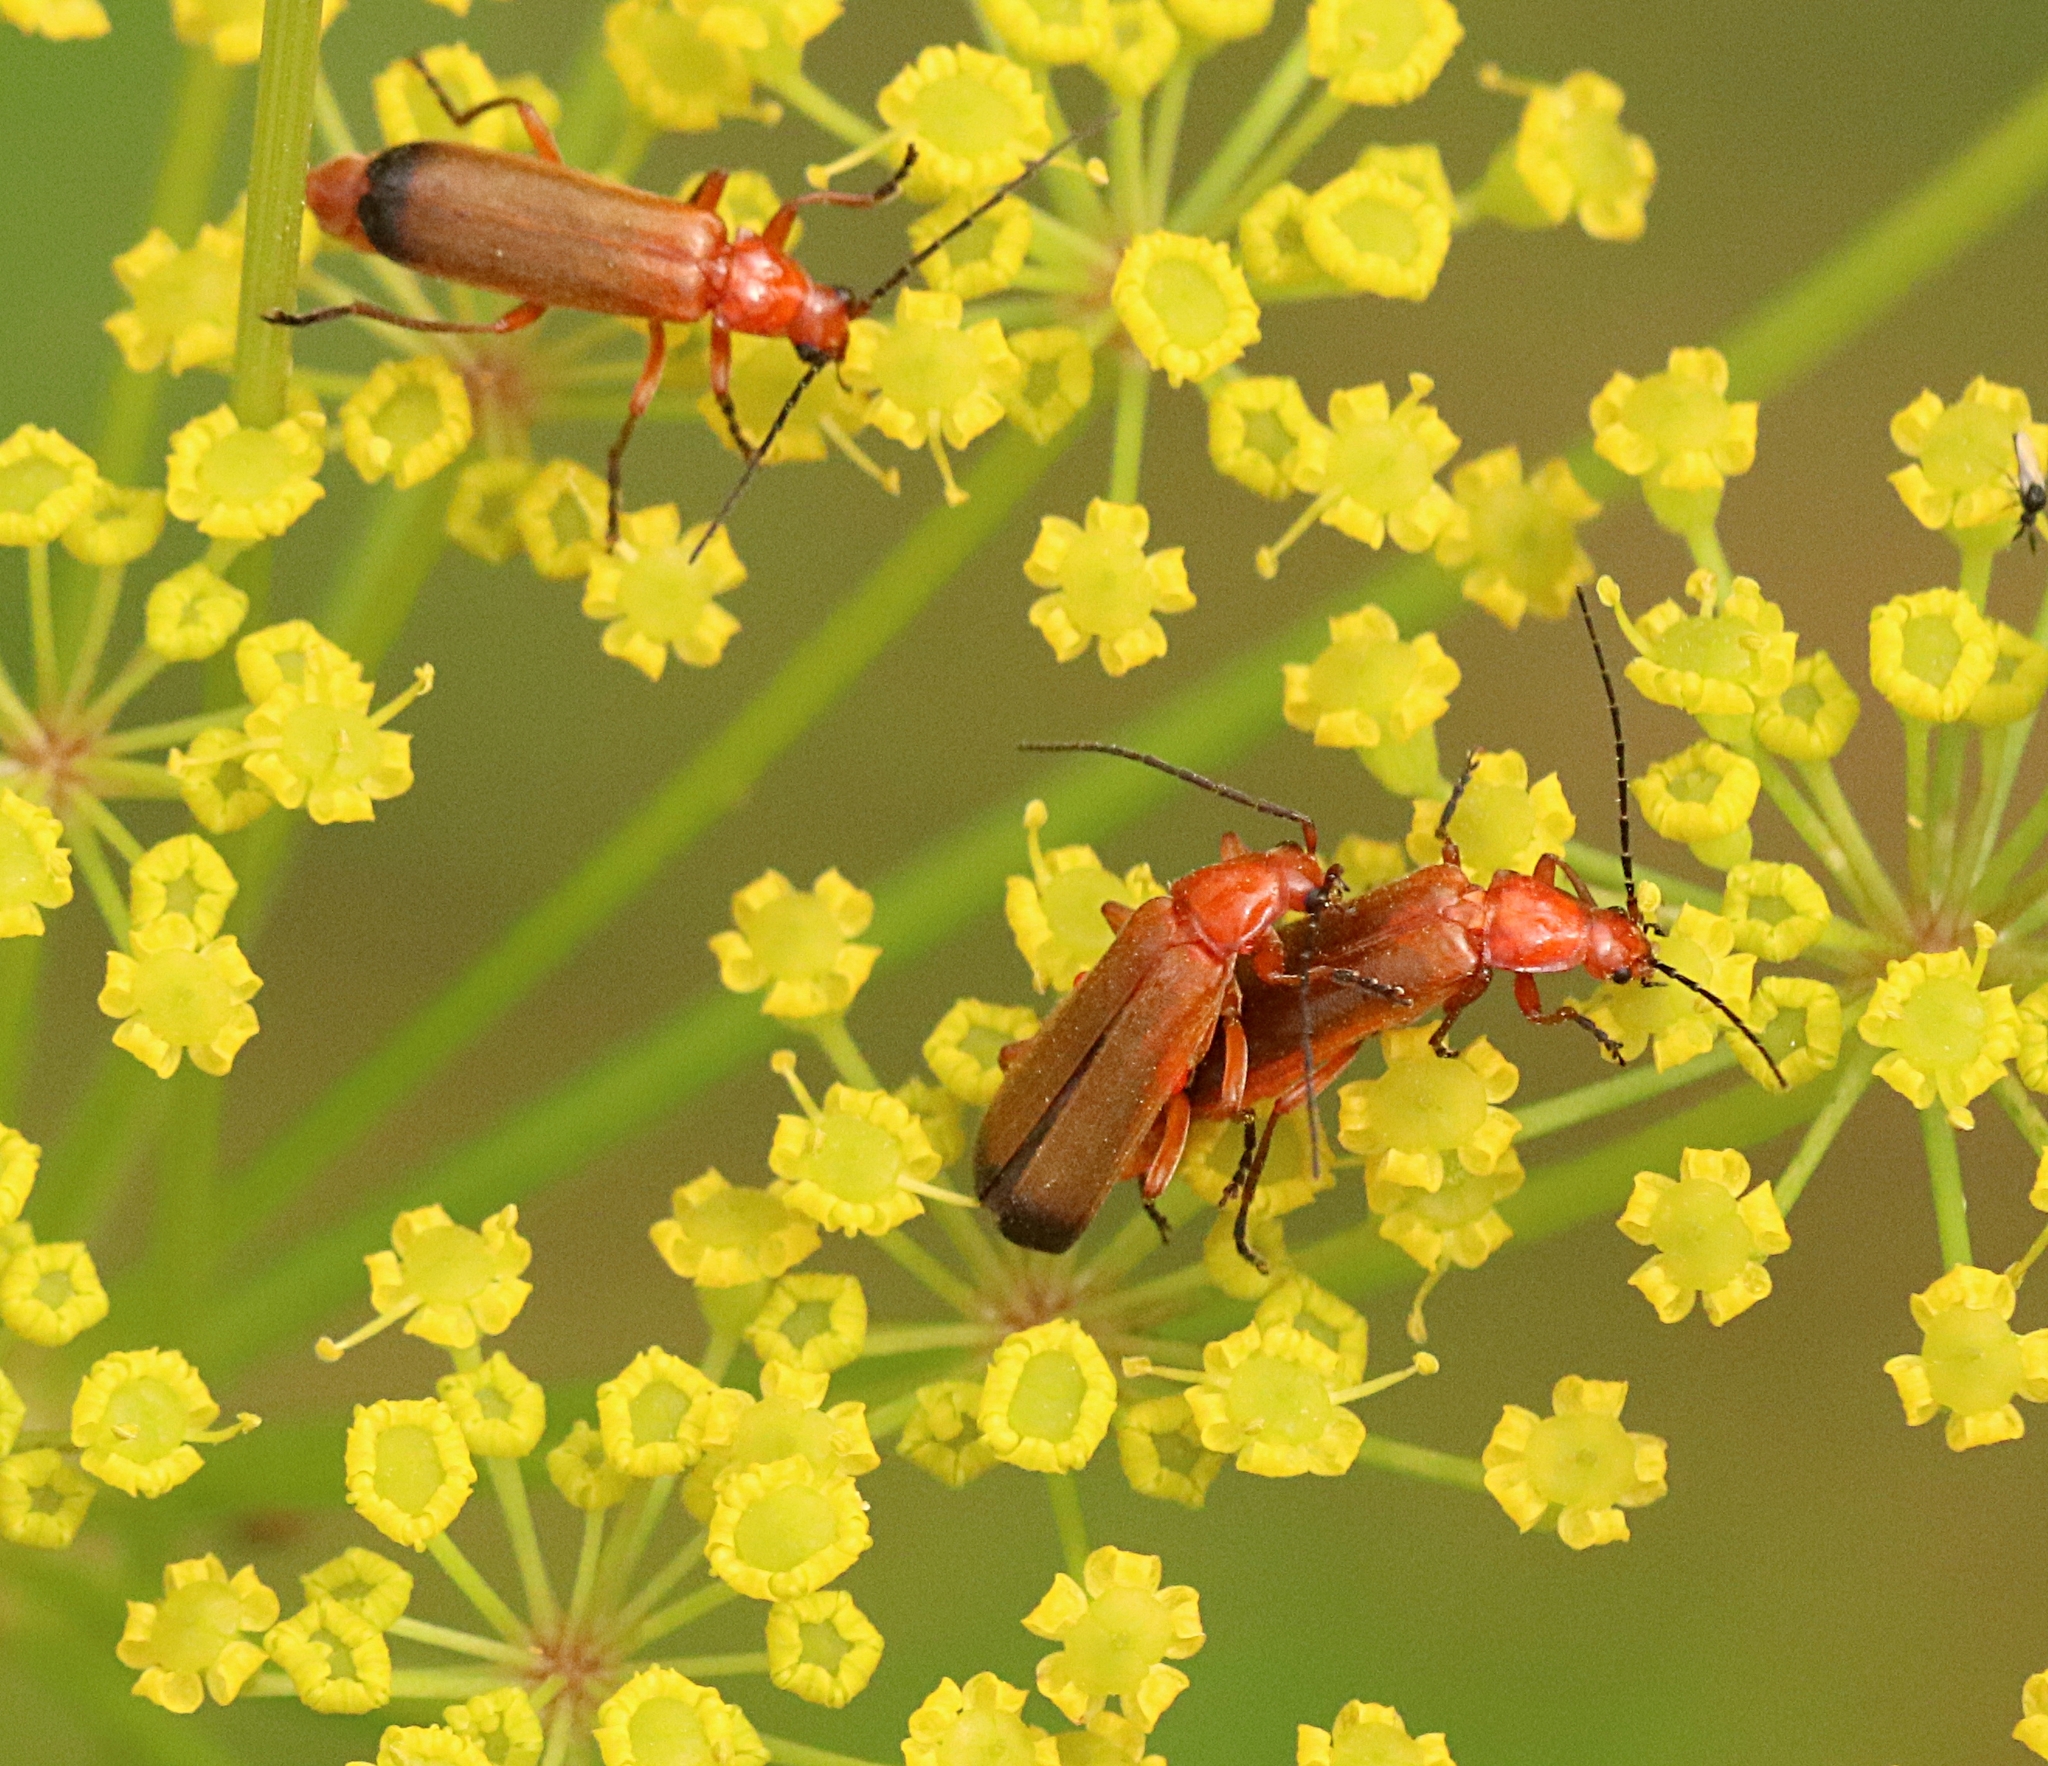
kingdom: Animalia
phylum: Arthropoda
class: Insecta
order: Coleoptera
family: Cantharidae
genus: Rhagonycha
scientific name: Rhagonycha fulva
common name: Common red soldier beetle
